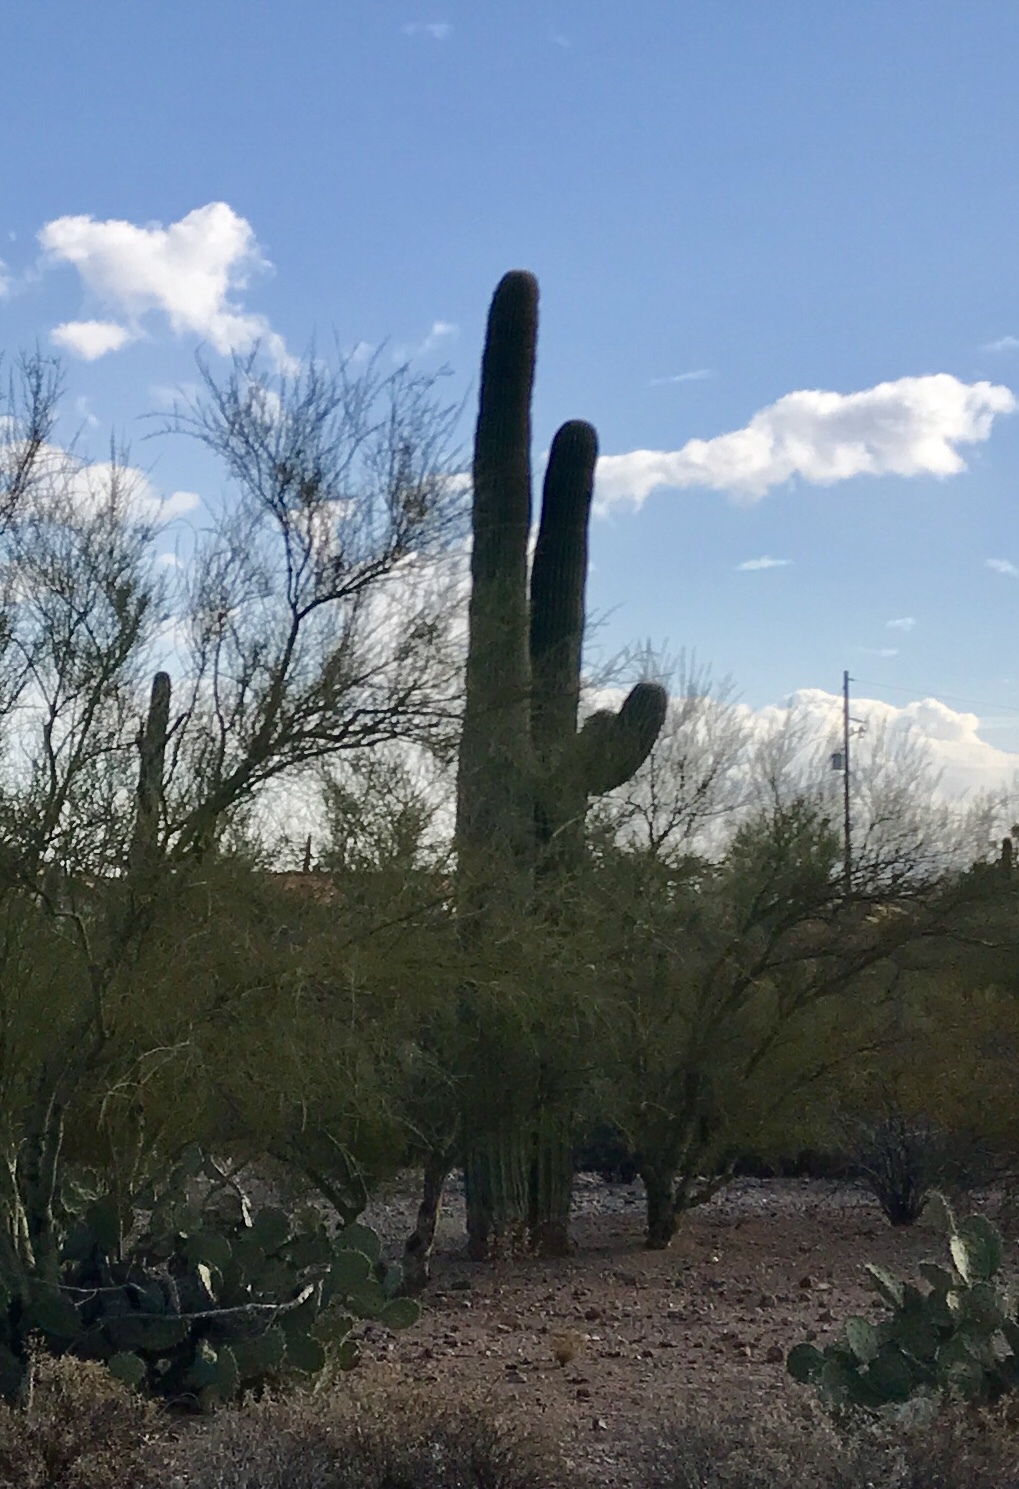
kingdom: Plantae
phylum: Tracheophyta
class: Magnoliopsida
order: Caryophyllales
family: Cactaceae
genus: Carnegiea
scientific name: Carnegiea gigantea
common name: Saguaro
